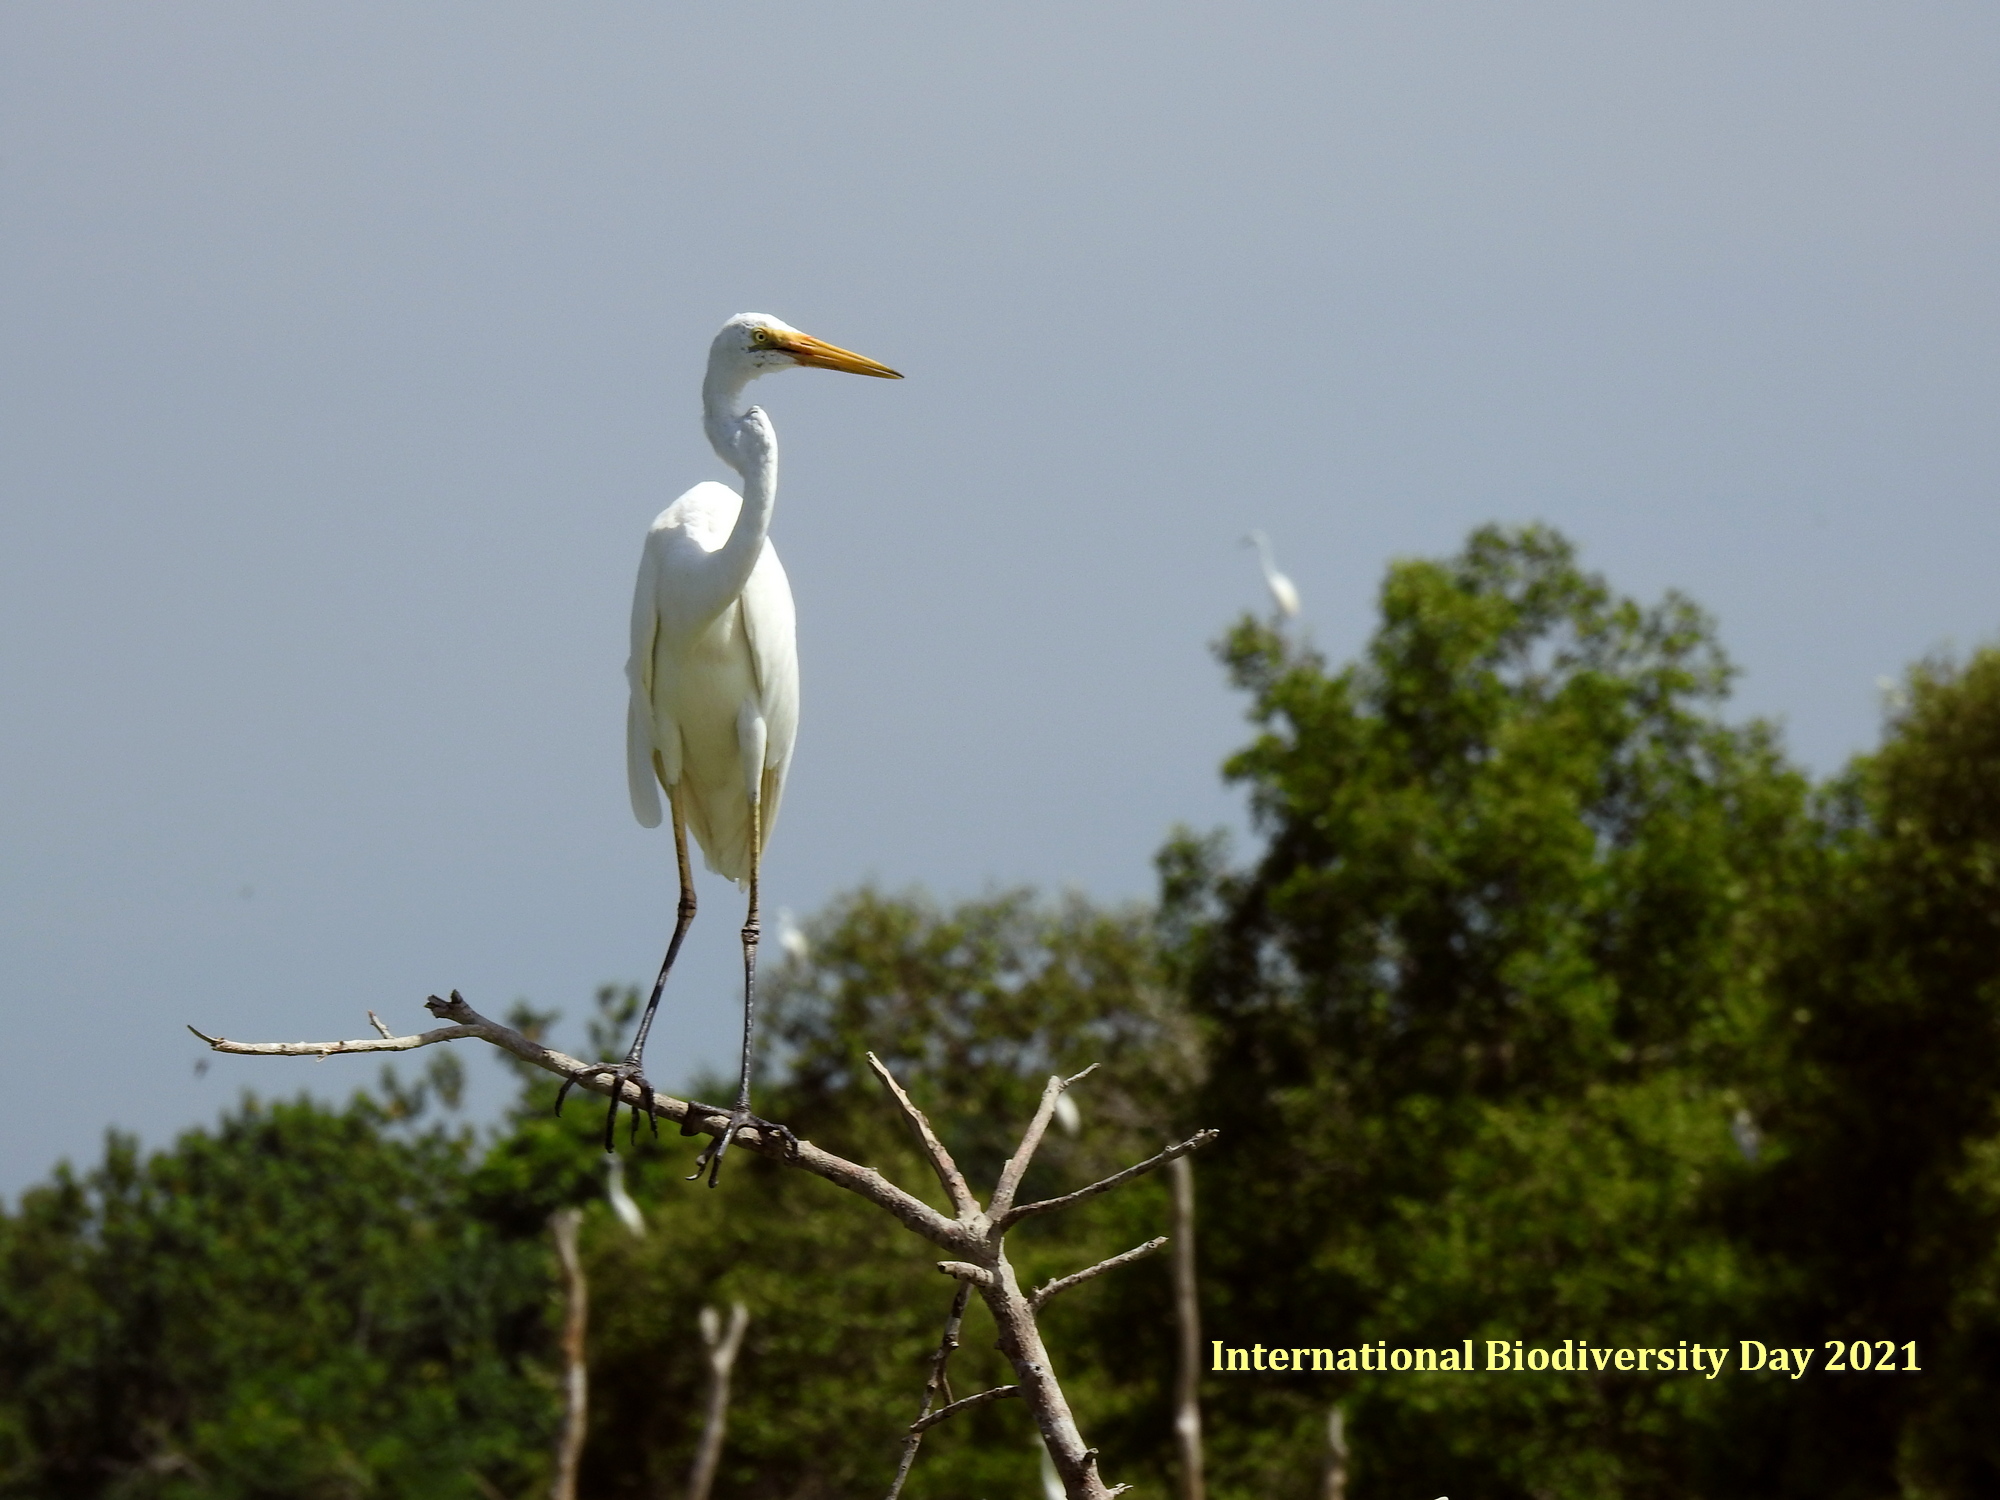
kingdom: Animalia
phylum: Chordata
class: Aves
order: Pelecaniformes
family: Ardeidae
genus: Ardea
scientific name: Ardea alba
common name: Great egret
